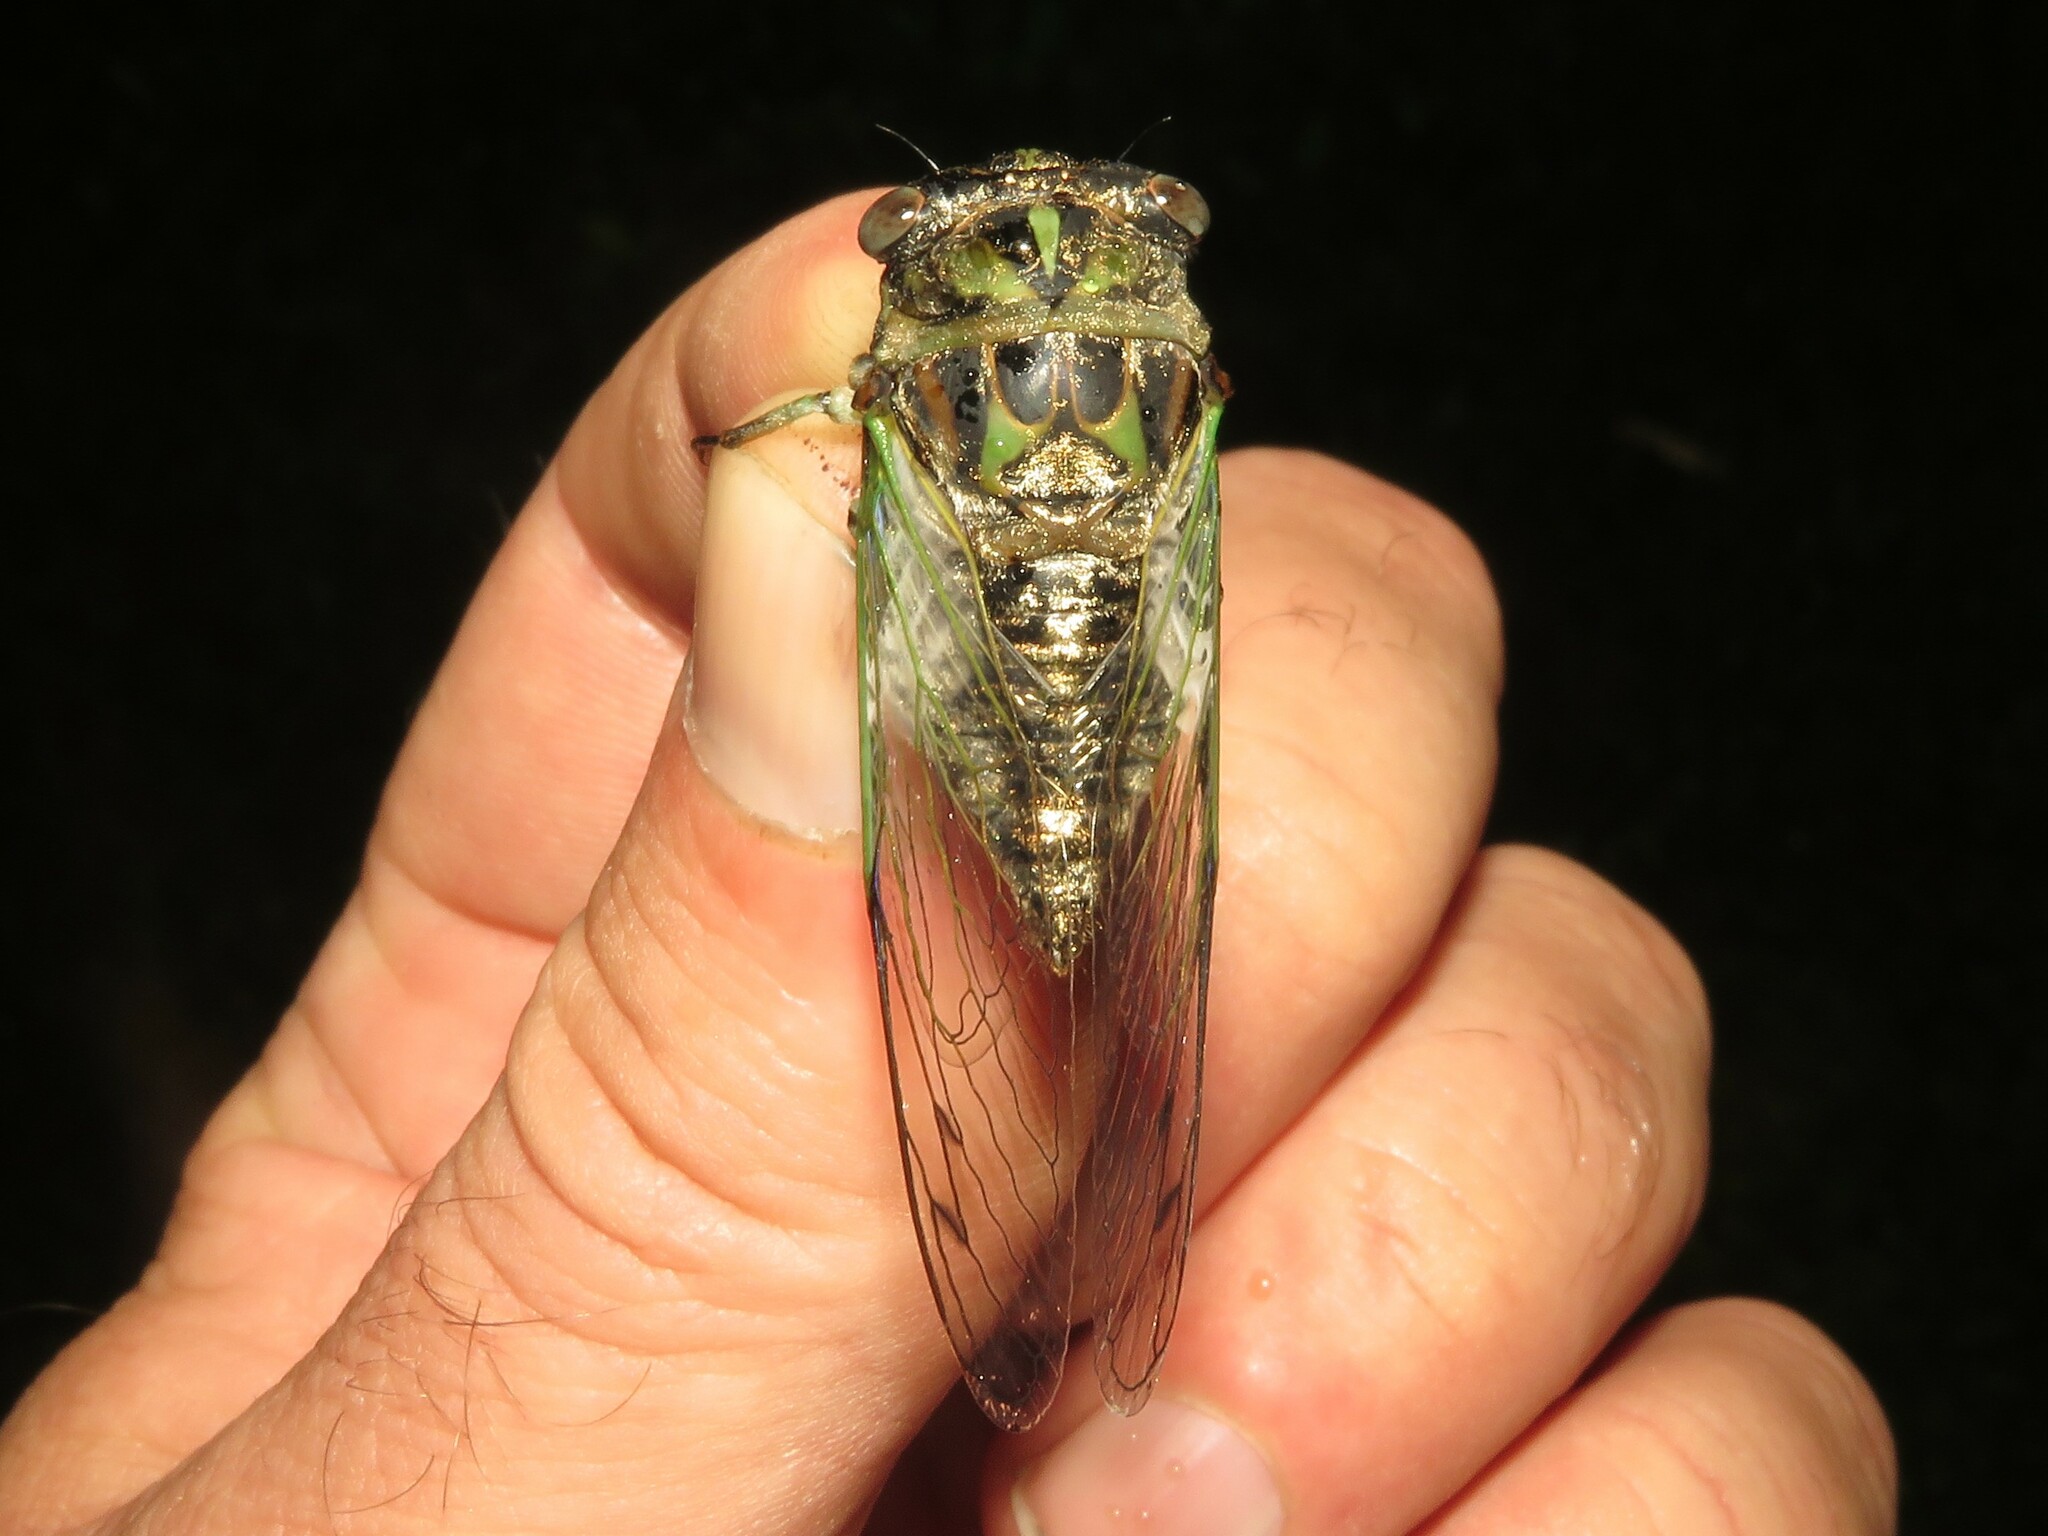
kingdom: Animalia
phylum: Arthropoda
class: Insecta
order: Hemiptera
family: Cicadidae
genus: Neotibicen
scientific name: Neotibicen canicularis
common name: God-day cicada
